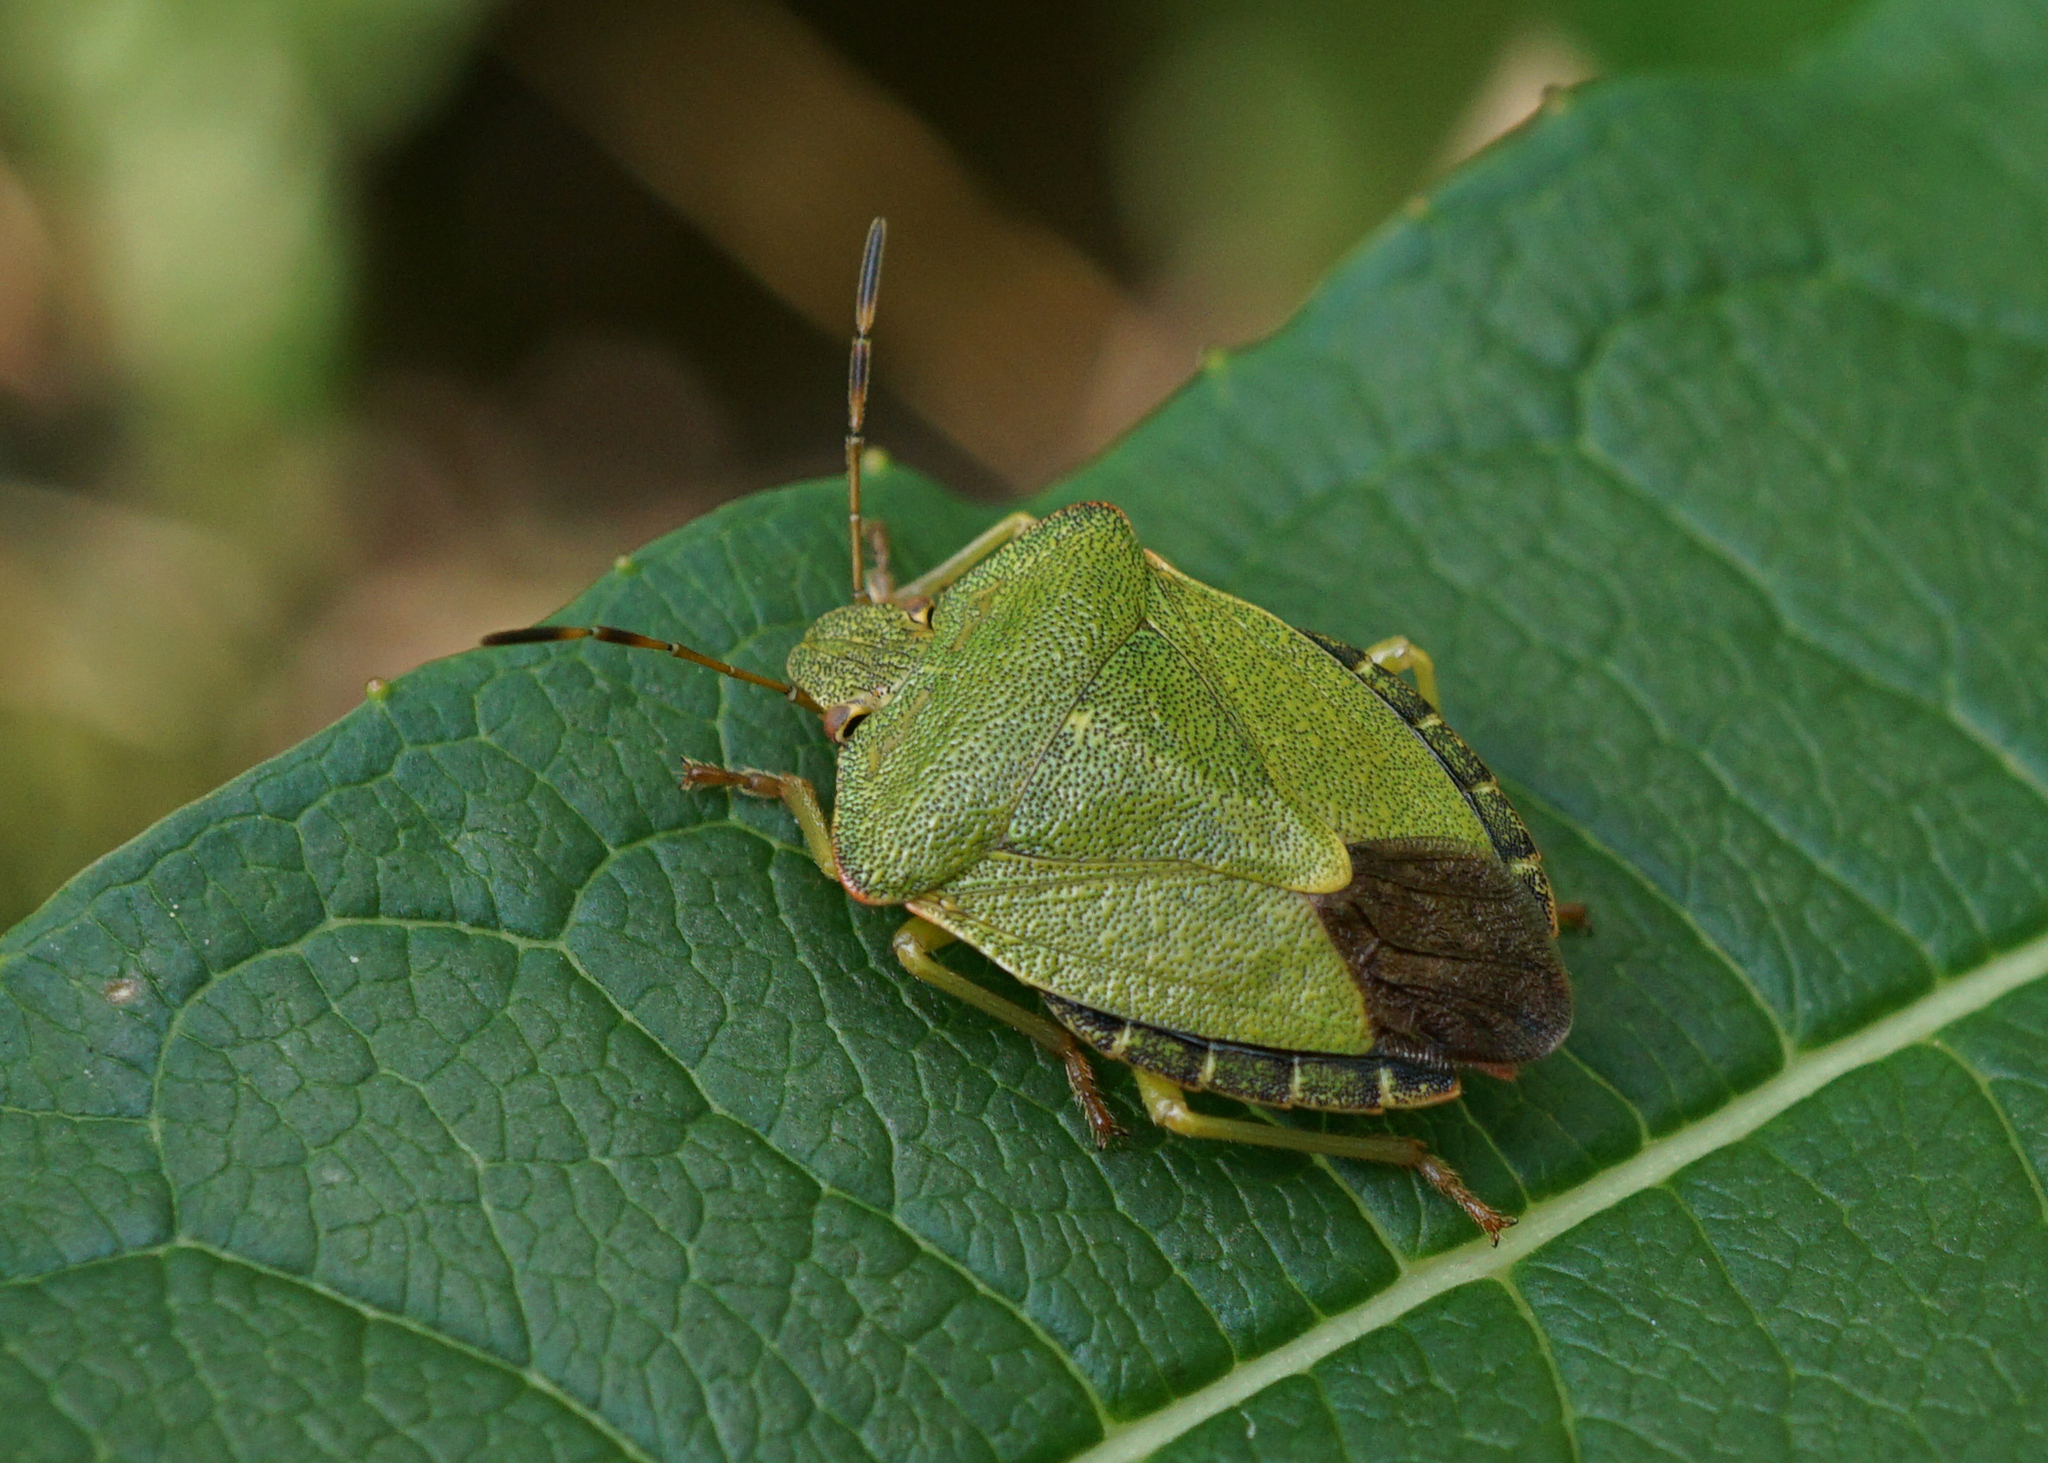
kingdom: Animalia
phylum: Arthropoda
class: Insecta
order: Hemiptera
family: Pentatomidae
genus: Palomena
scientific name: Palomena prasina
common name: Green shieldbug
